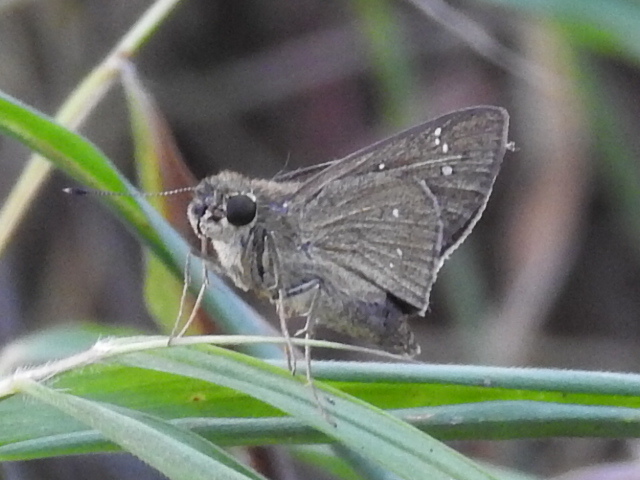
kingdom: Animalia
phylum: Arthropoda
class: Insecta
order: Lepidoptera
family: Hesperiidae
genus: Borbo
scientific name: Borbo cinnara
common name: Formosan swift
